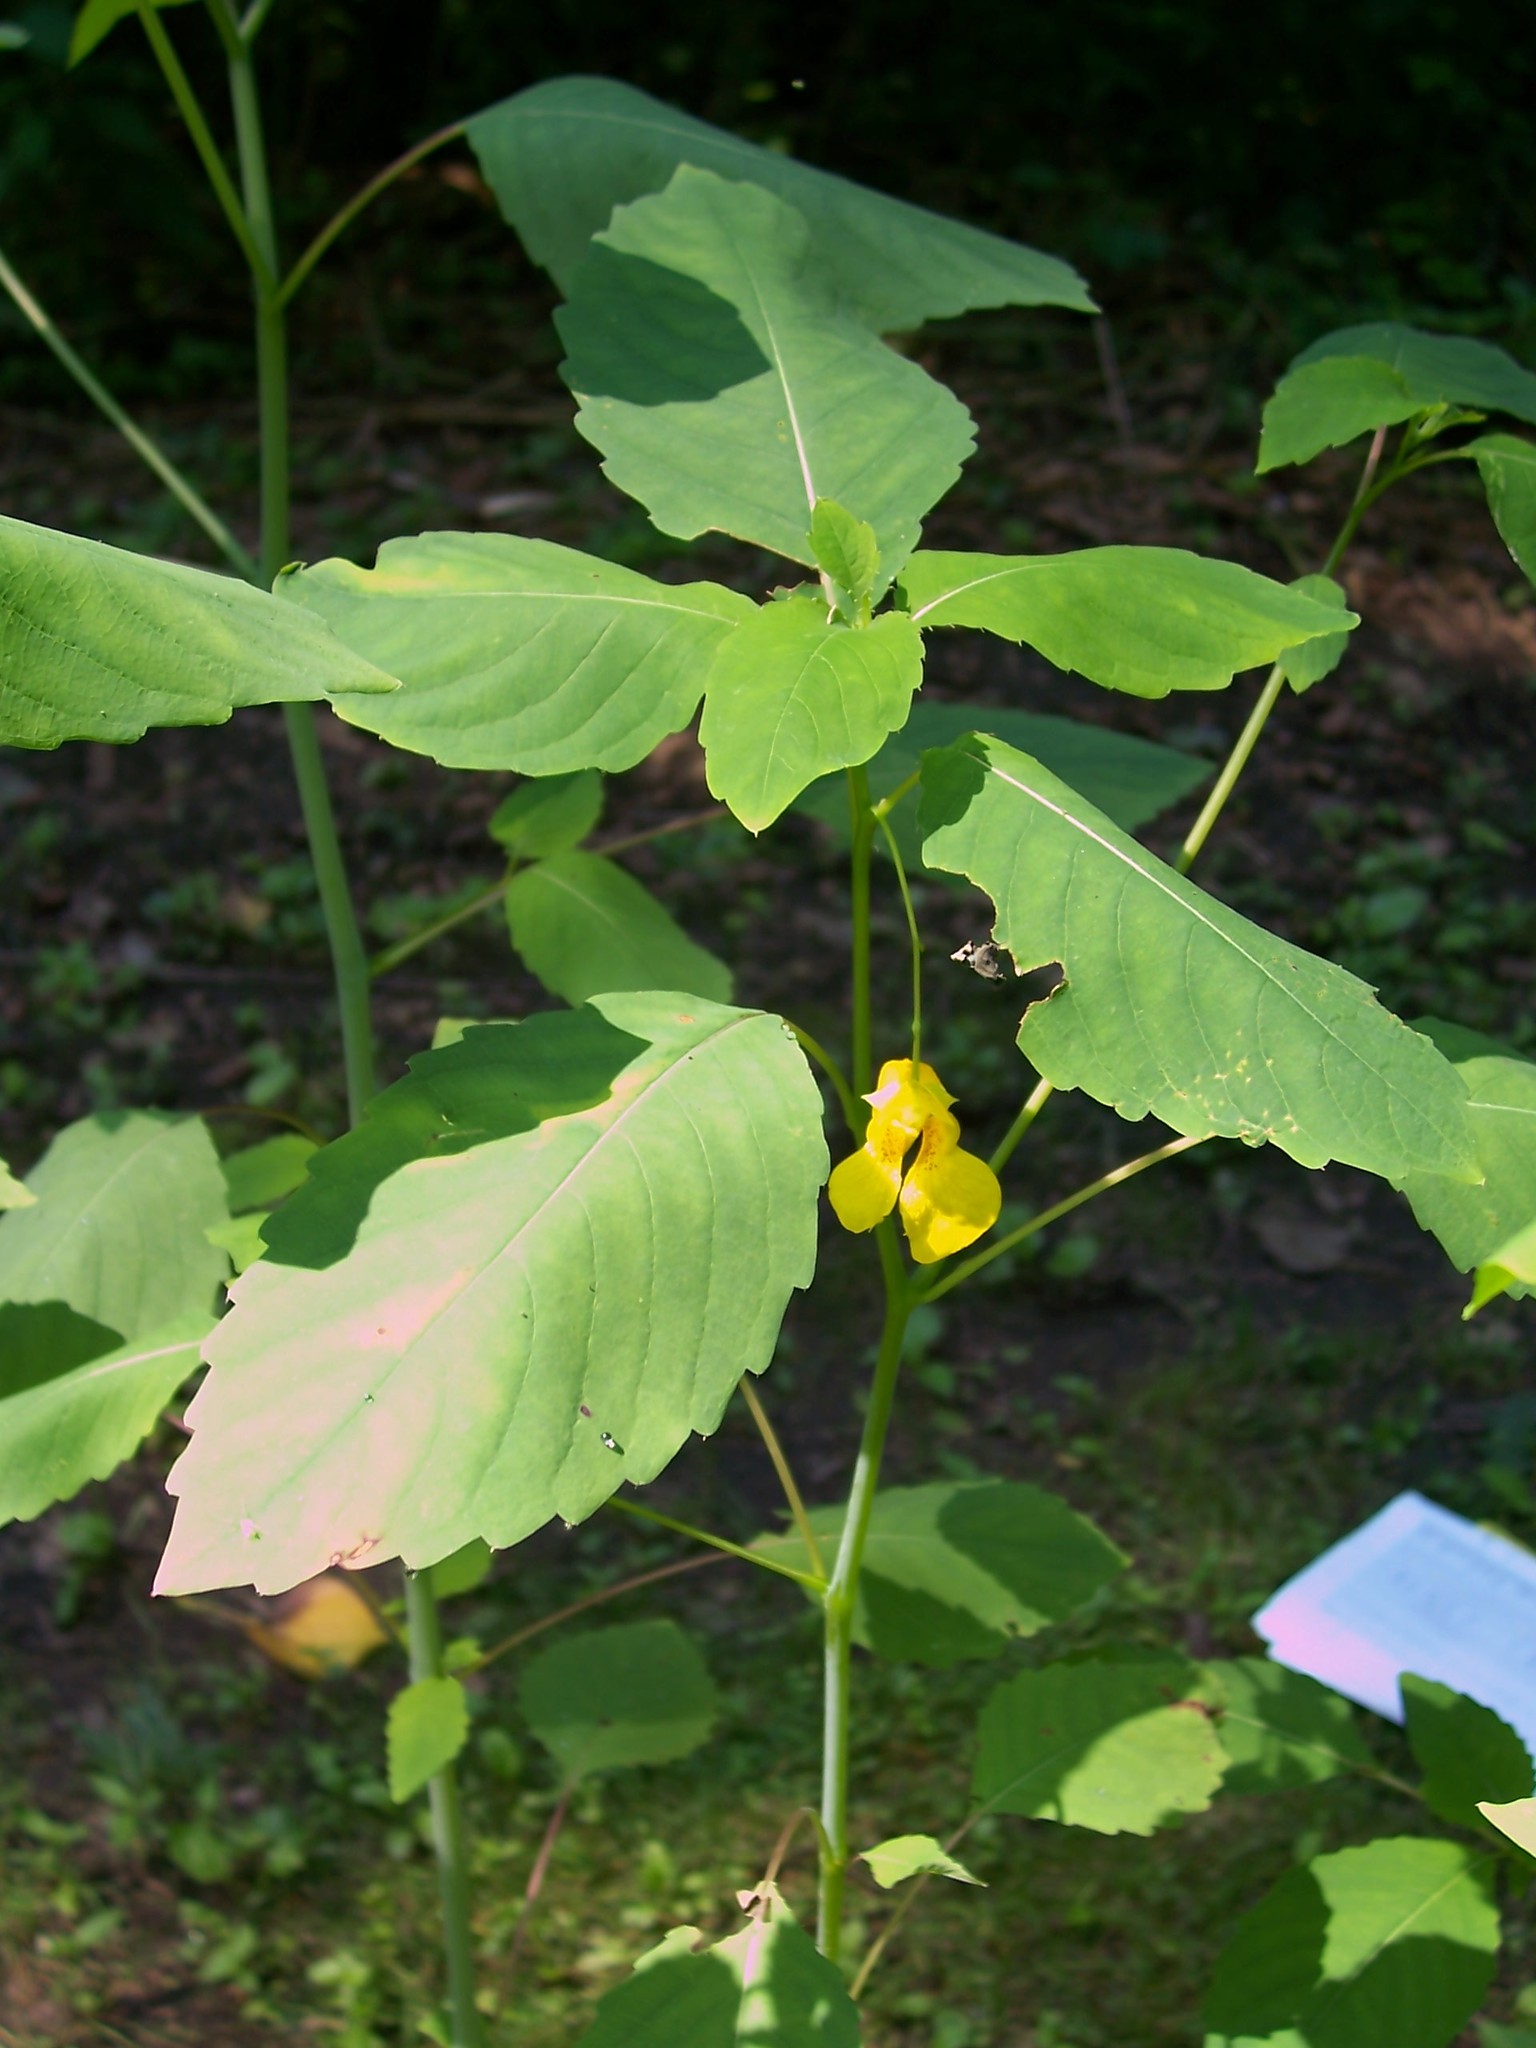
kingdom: Plantae
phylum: Tracheophyta
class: Magnoliopsida
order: Ericales
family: Balsaminaceae
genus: Impatiens
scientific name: Impatiens pallida
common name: Pale snapweed
